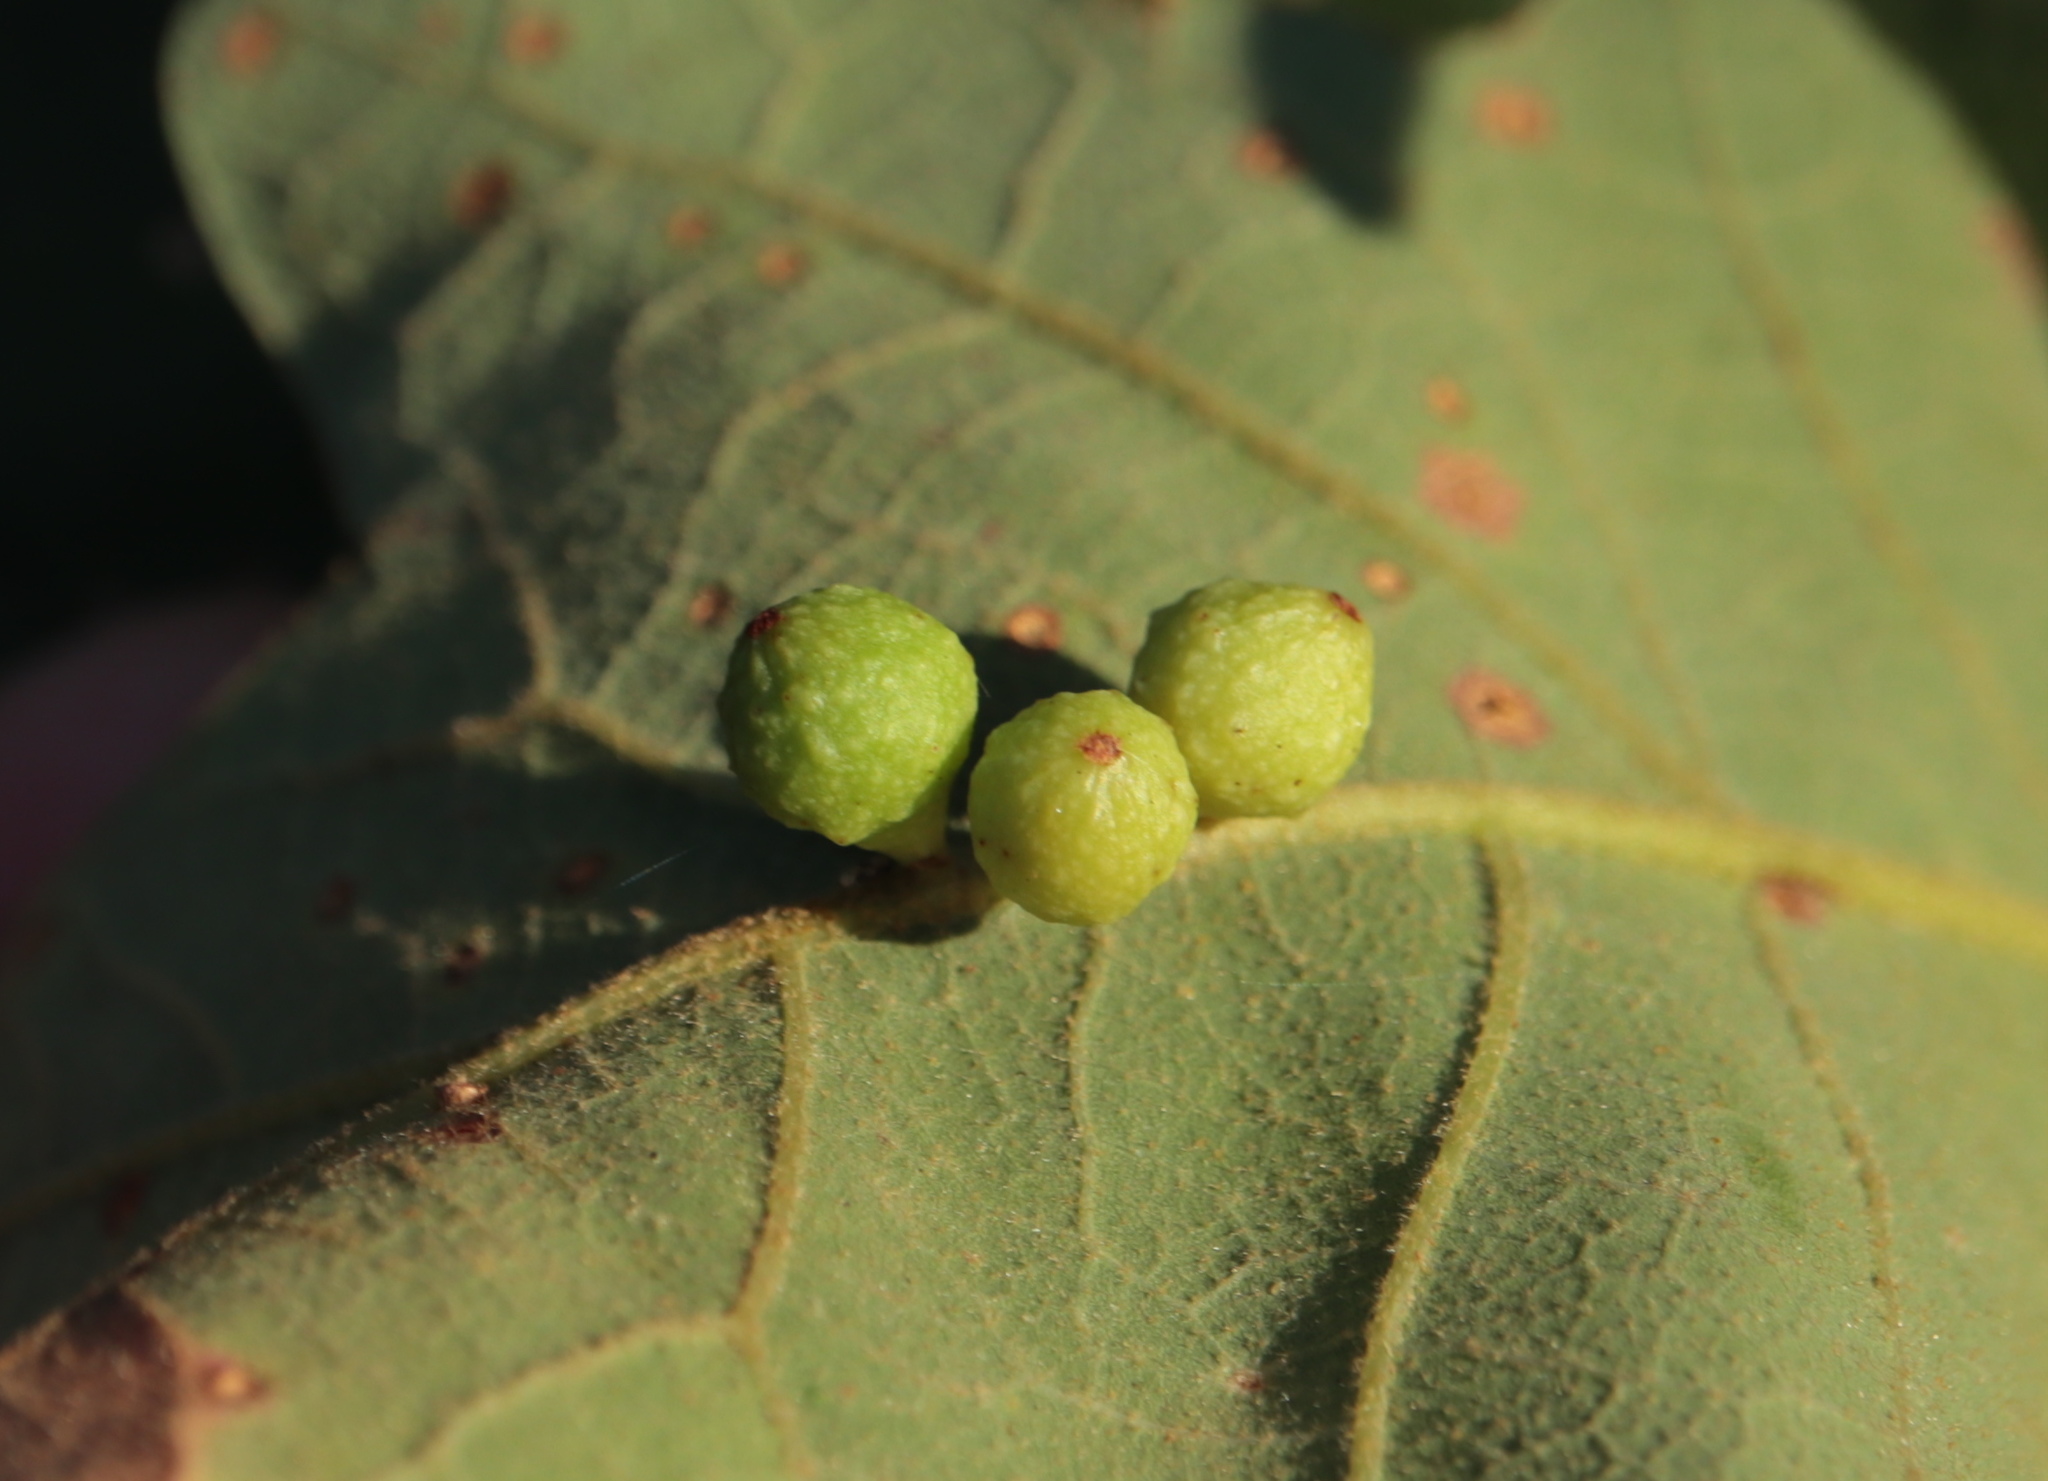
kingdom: Animalia
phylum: Arthropoda
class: Insecta
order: Hymenoptera
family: Cynipidae
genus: Andricus
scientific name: Andricus
